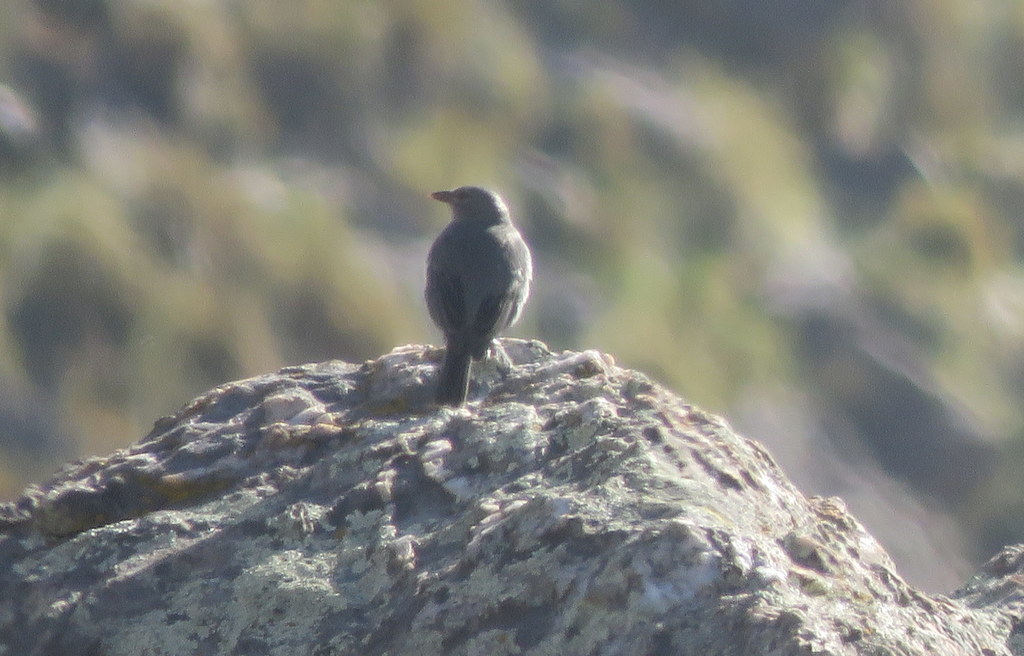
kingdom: Animalia
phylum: Chordata
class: Aves
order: Passeriformes
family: Thraupidae
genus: Idiopsar
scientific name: Idiopsar brachyurus
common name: Short-tailed finch
